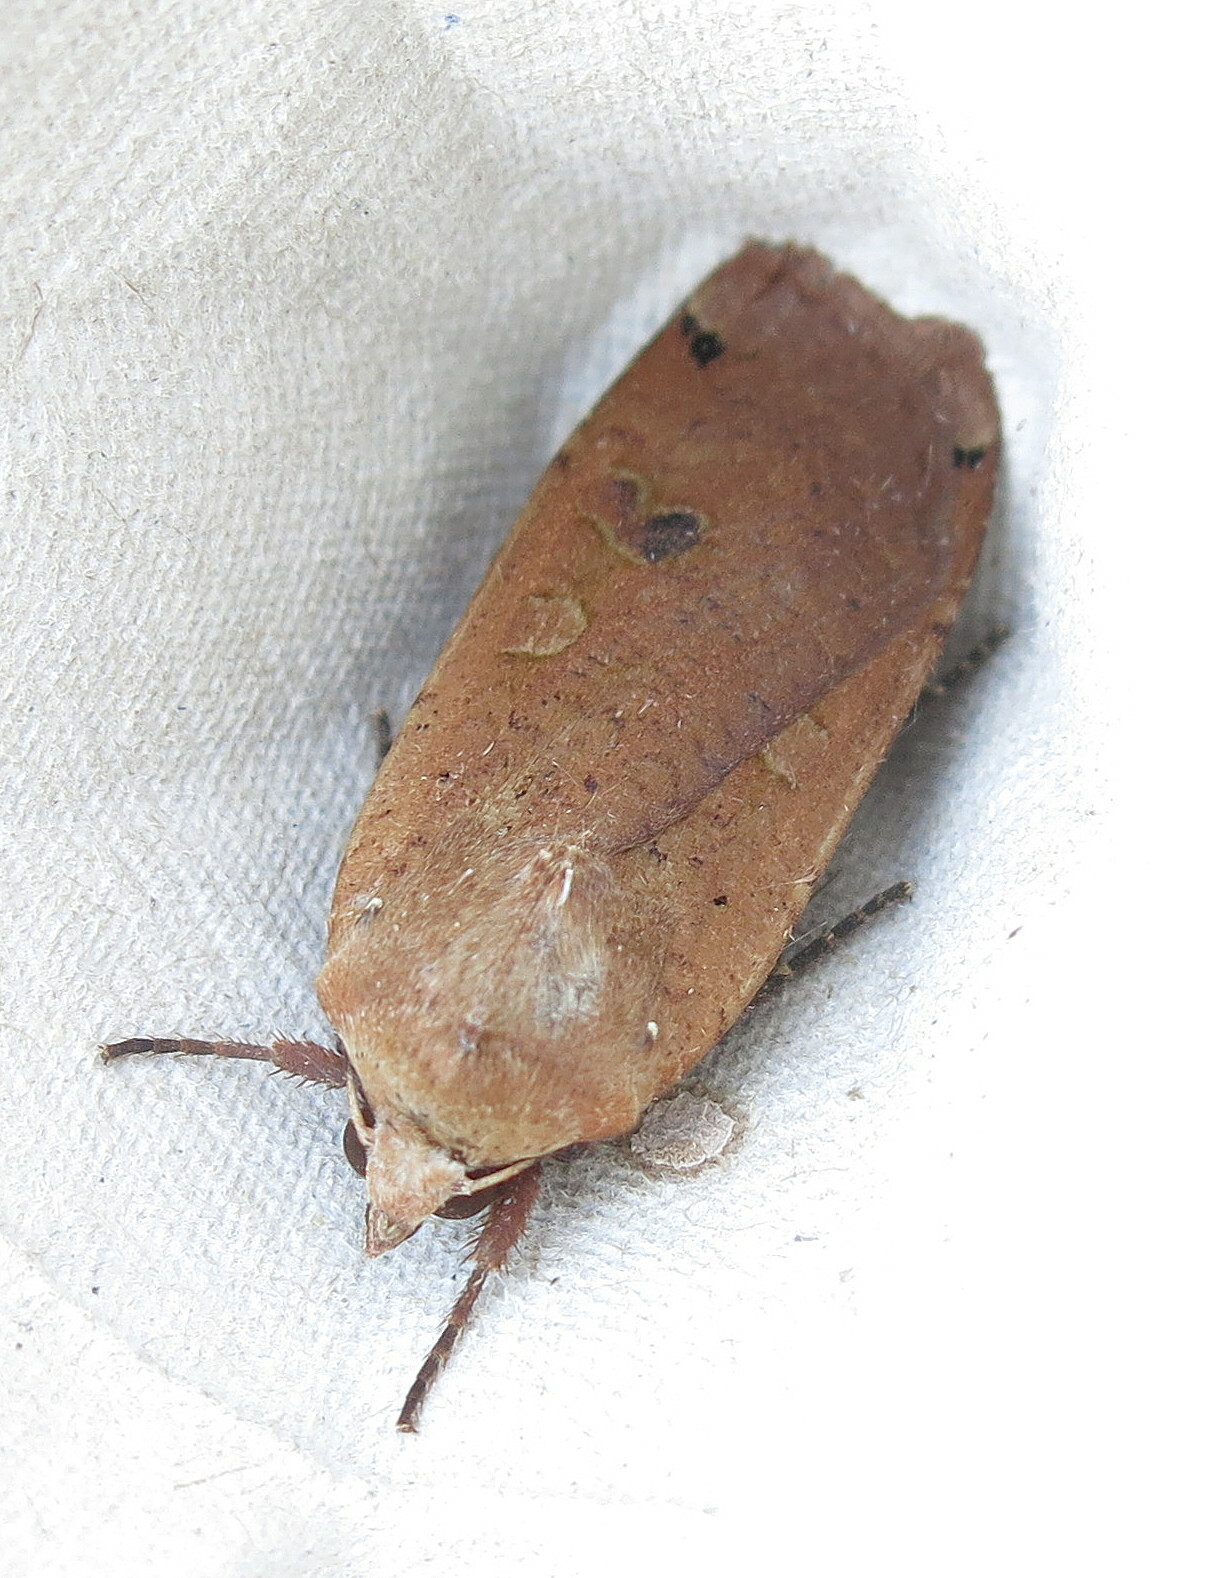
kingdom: Animalia
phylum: Arthropoda
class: Insecta
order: Lepidoptera
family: Noctuidae
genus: Noctua
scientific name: Noctua pronuba
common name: Large yellow underwing
